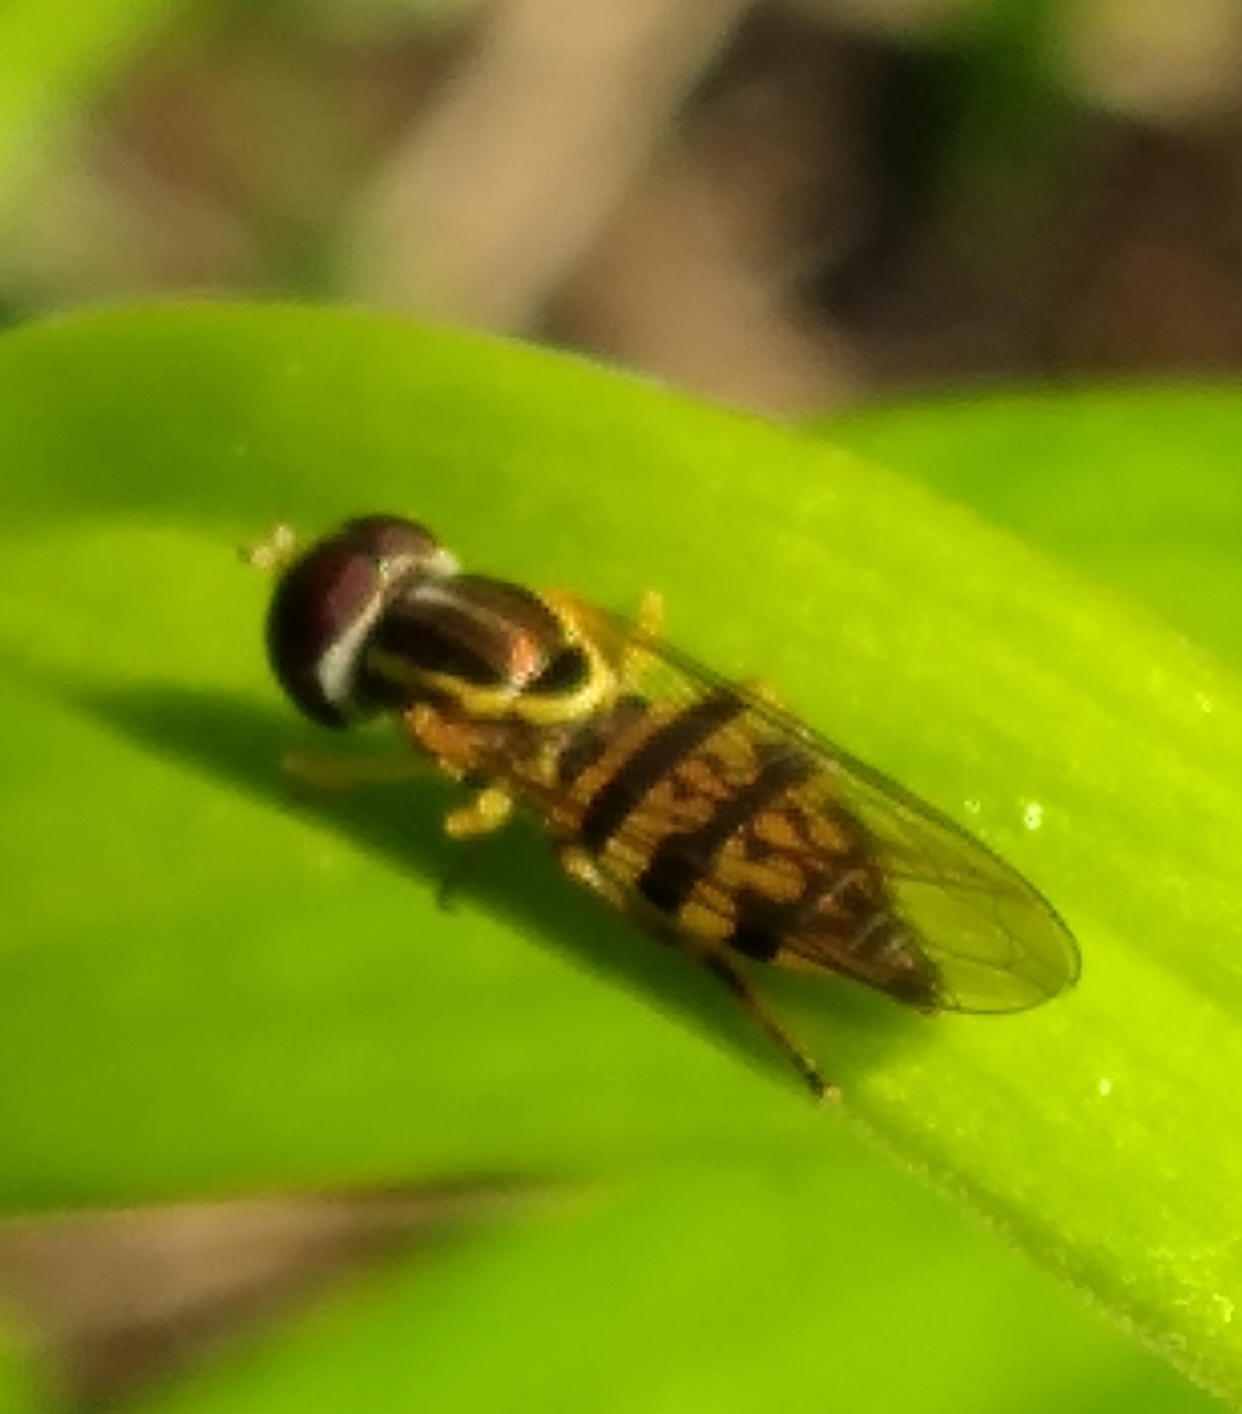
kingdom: Animalia
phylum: Arthropoda
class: Insecta
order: Diptera
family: Syrphidae
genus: Toxomerus
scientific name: Toxomerus geminatus
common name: Eastern calligrapher
